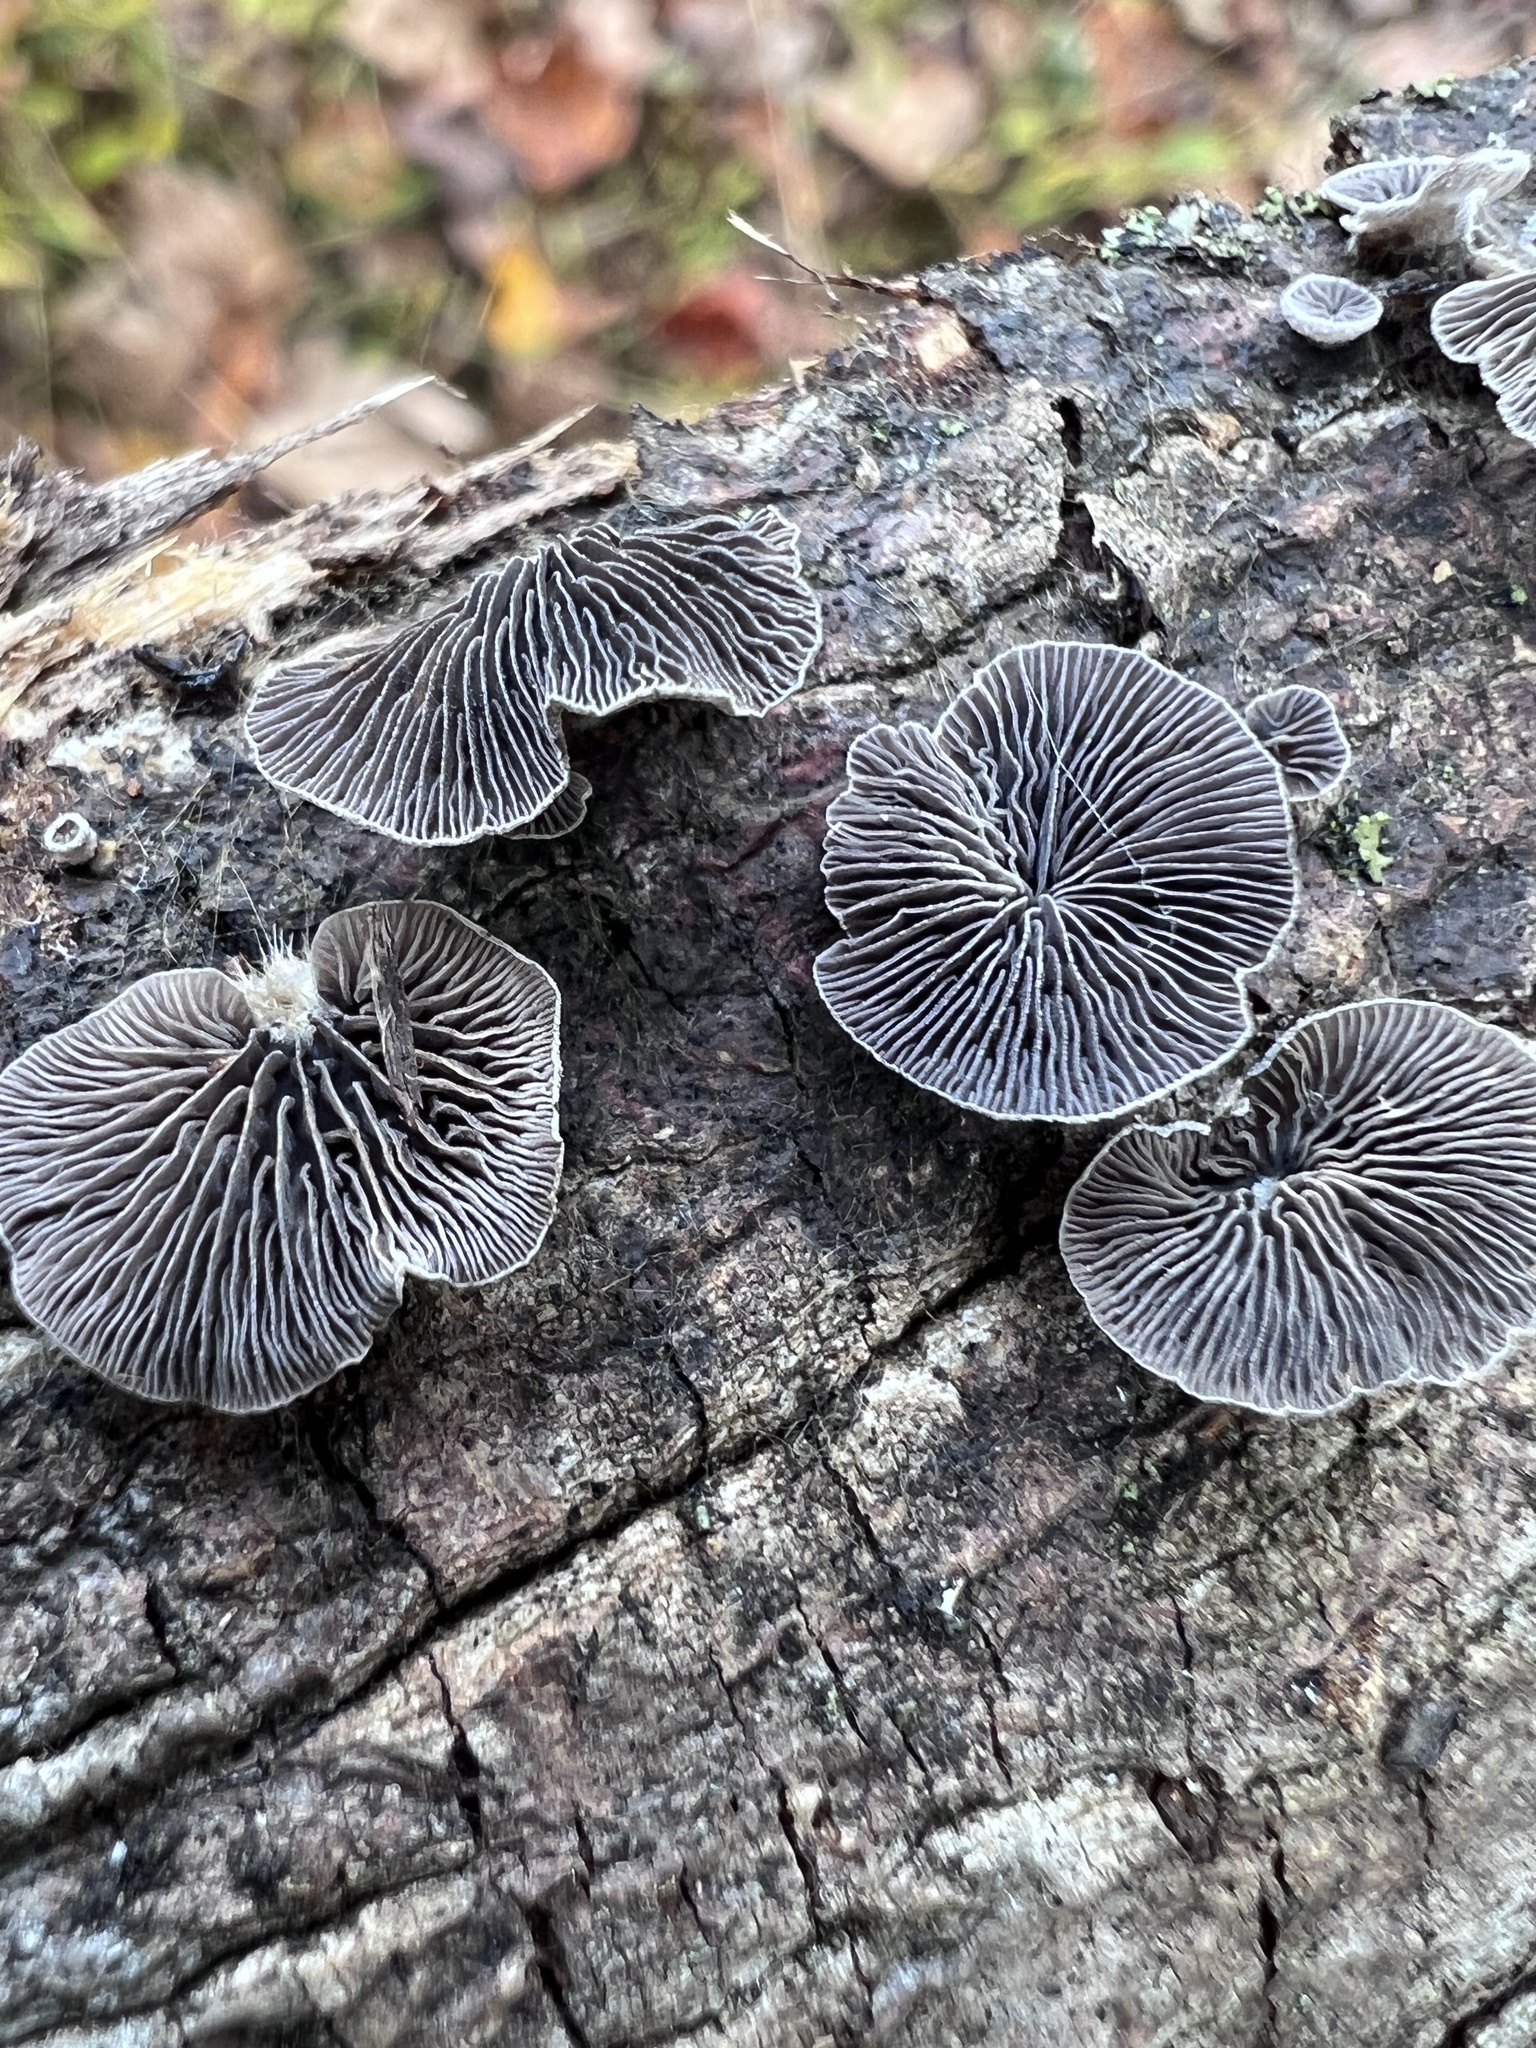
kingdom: Fungi
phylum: Basidiomycota
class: Agaricomycetes
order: Agaricales
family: Pleurotaceae
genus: Resupinatus
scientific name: Resupinatus applicatus
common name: Smoked oysterling
